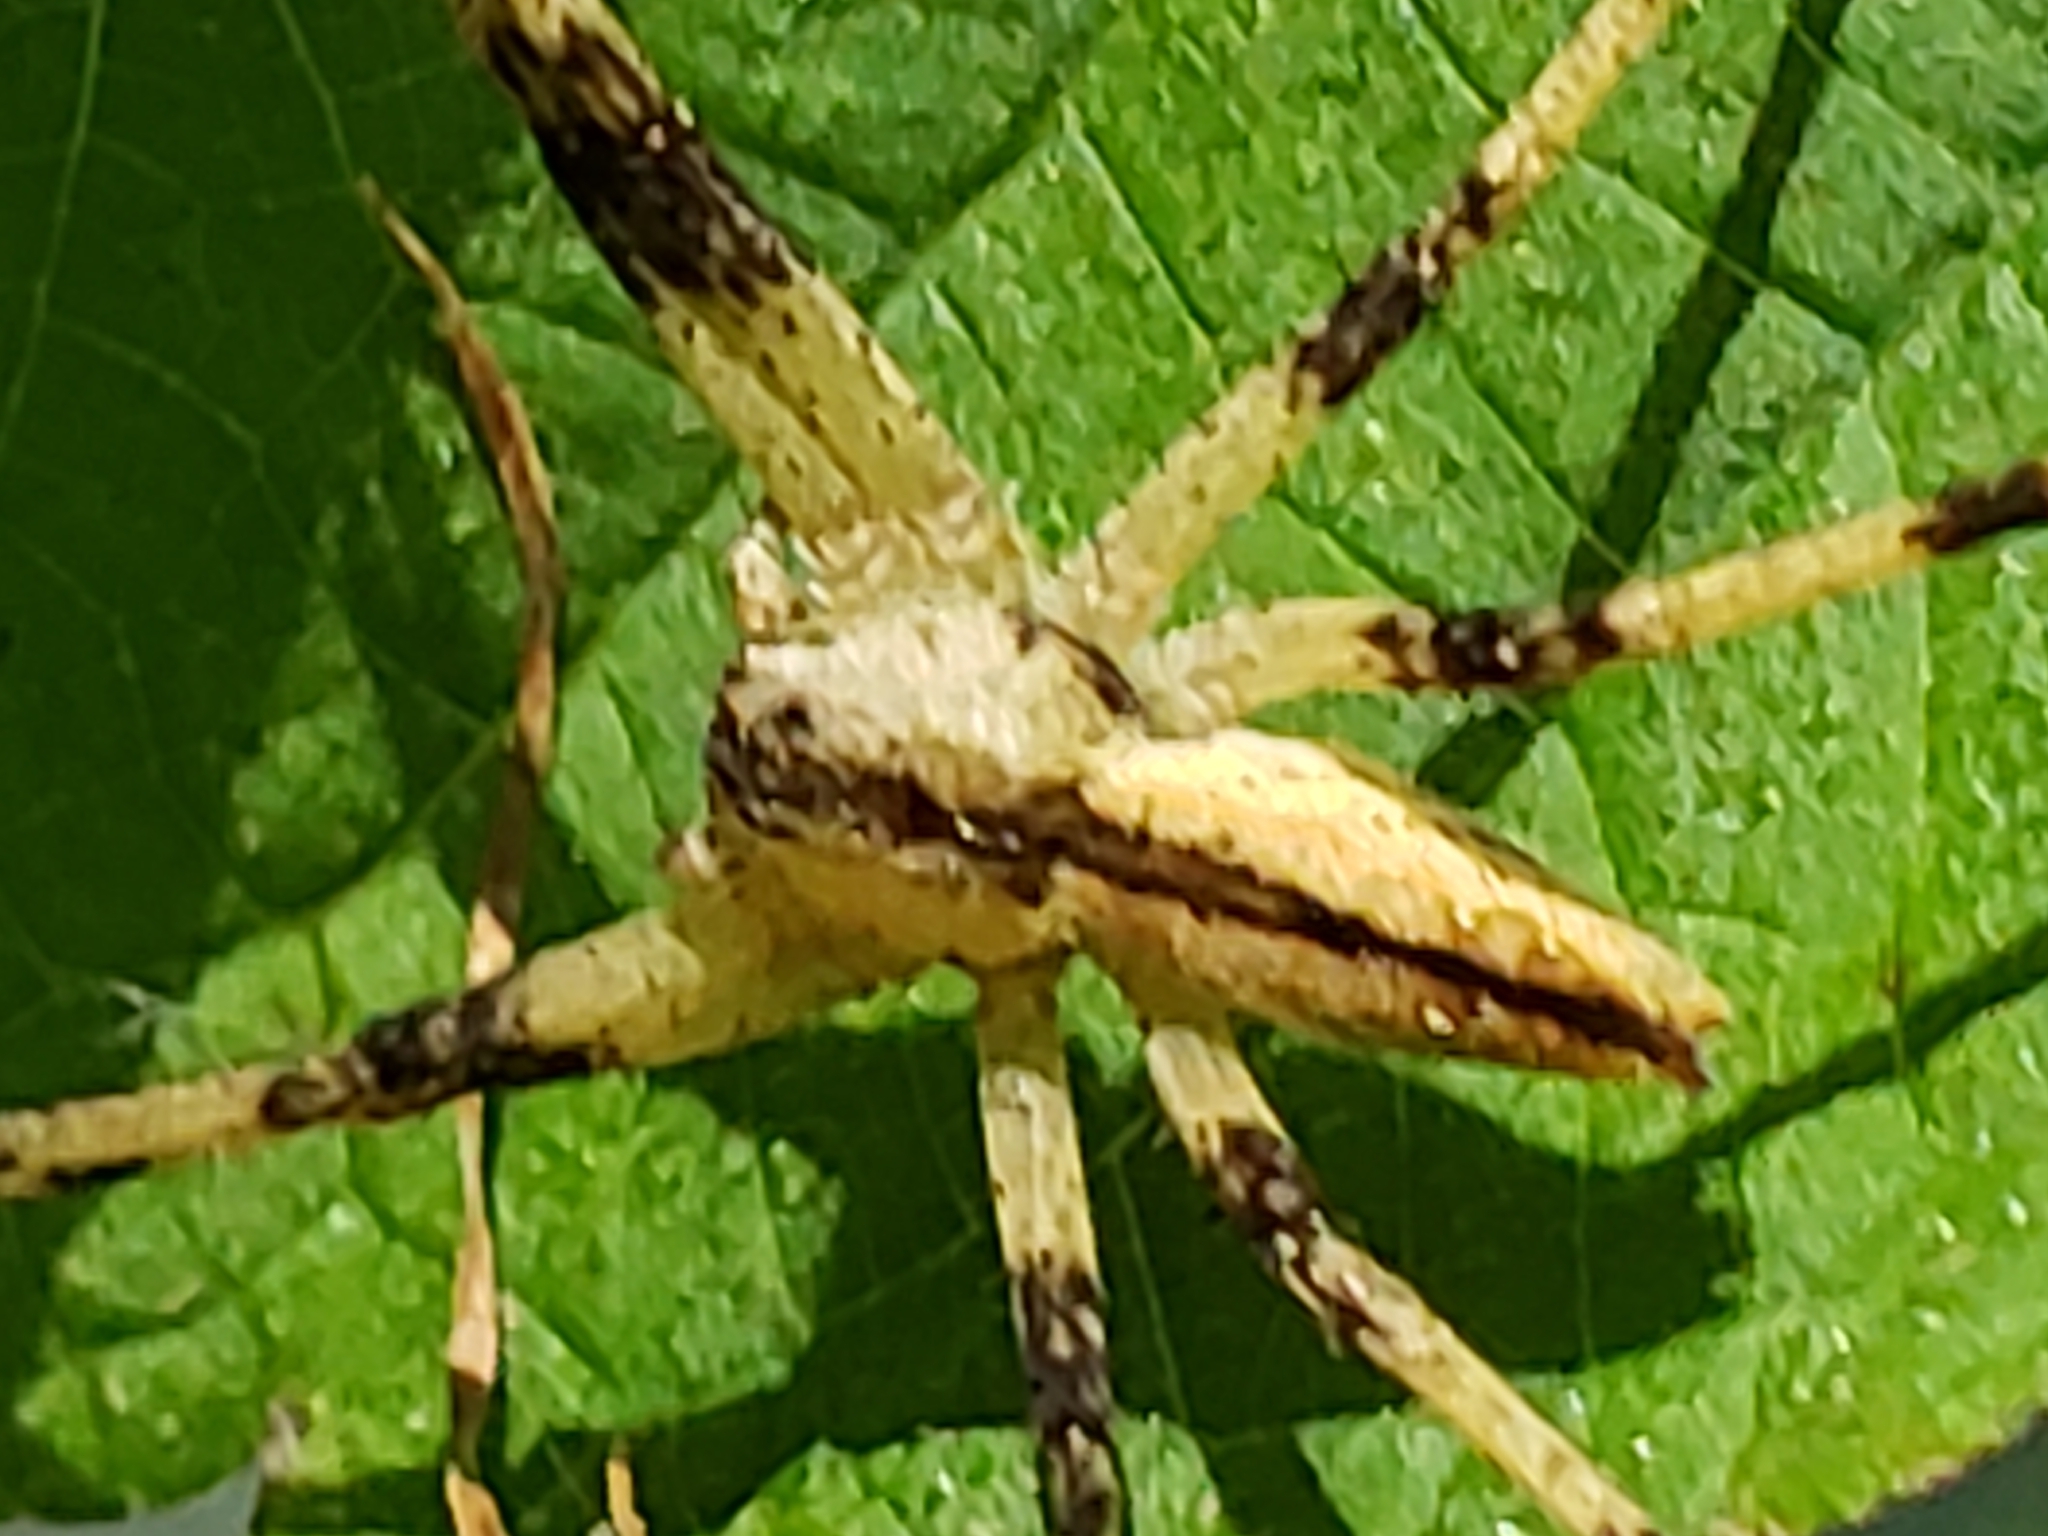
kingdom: Animalia
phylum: Arthropoda
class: Arachnida
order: Araneae
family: Pisauridae
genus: Pisaurina
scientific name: Pisaurina mira
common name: American nursery web spider
